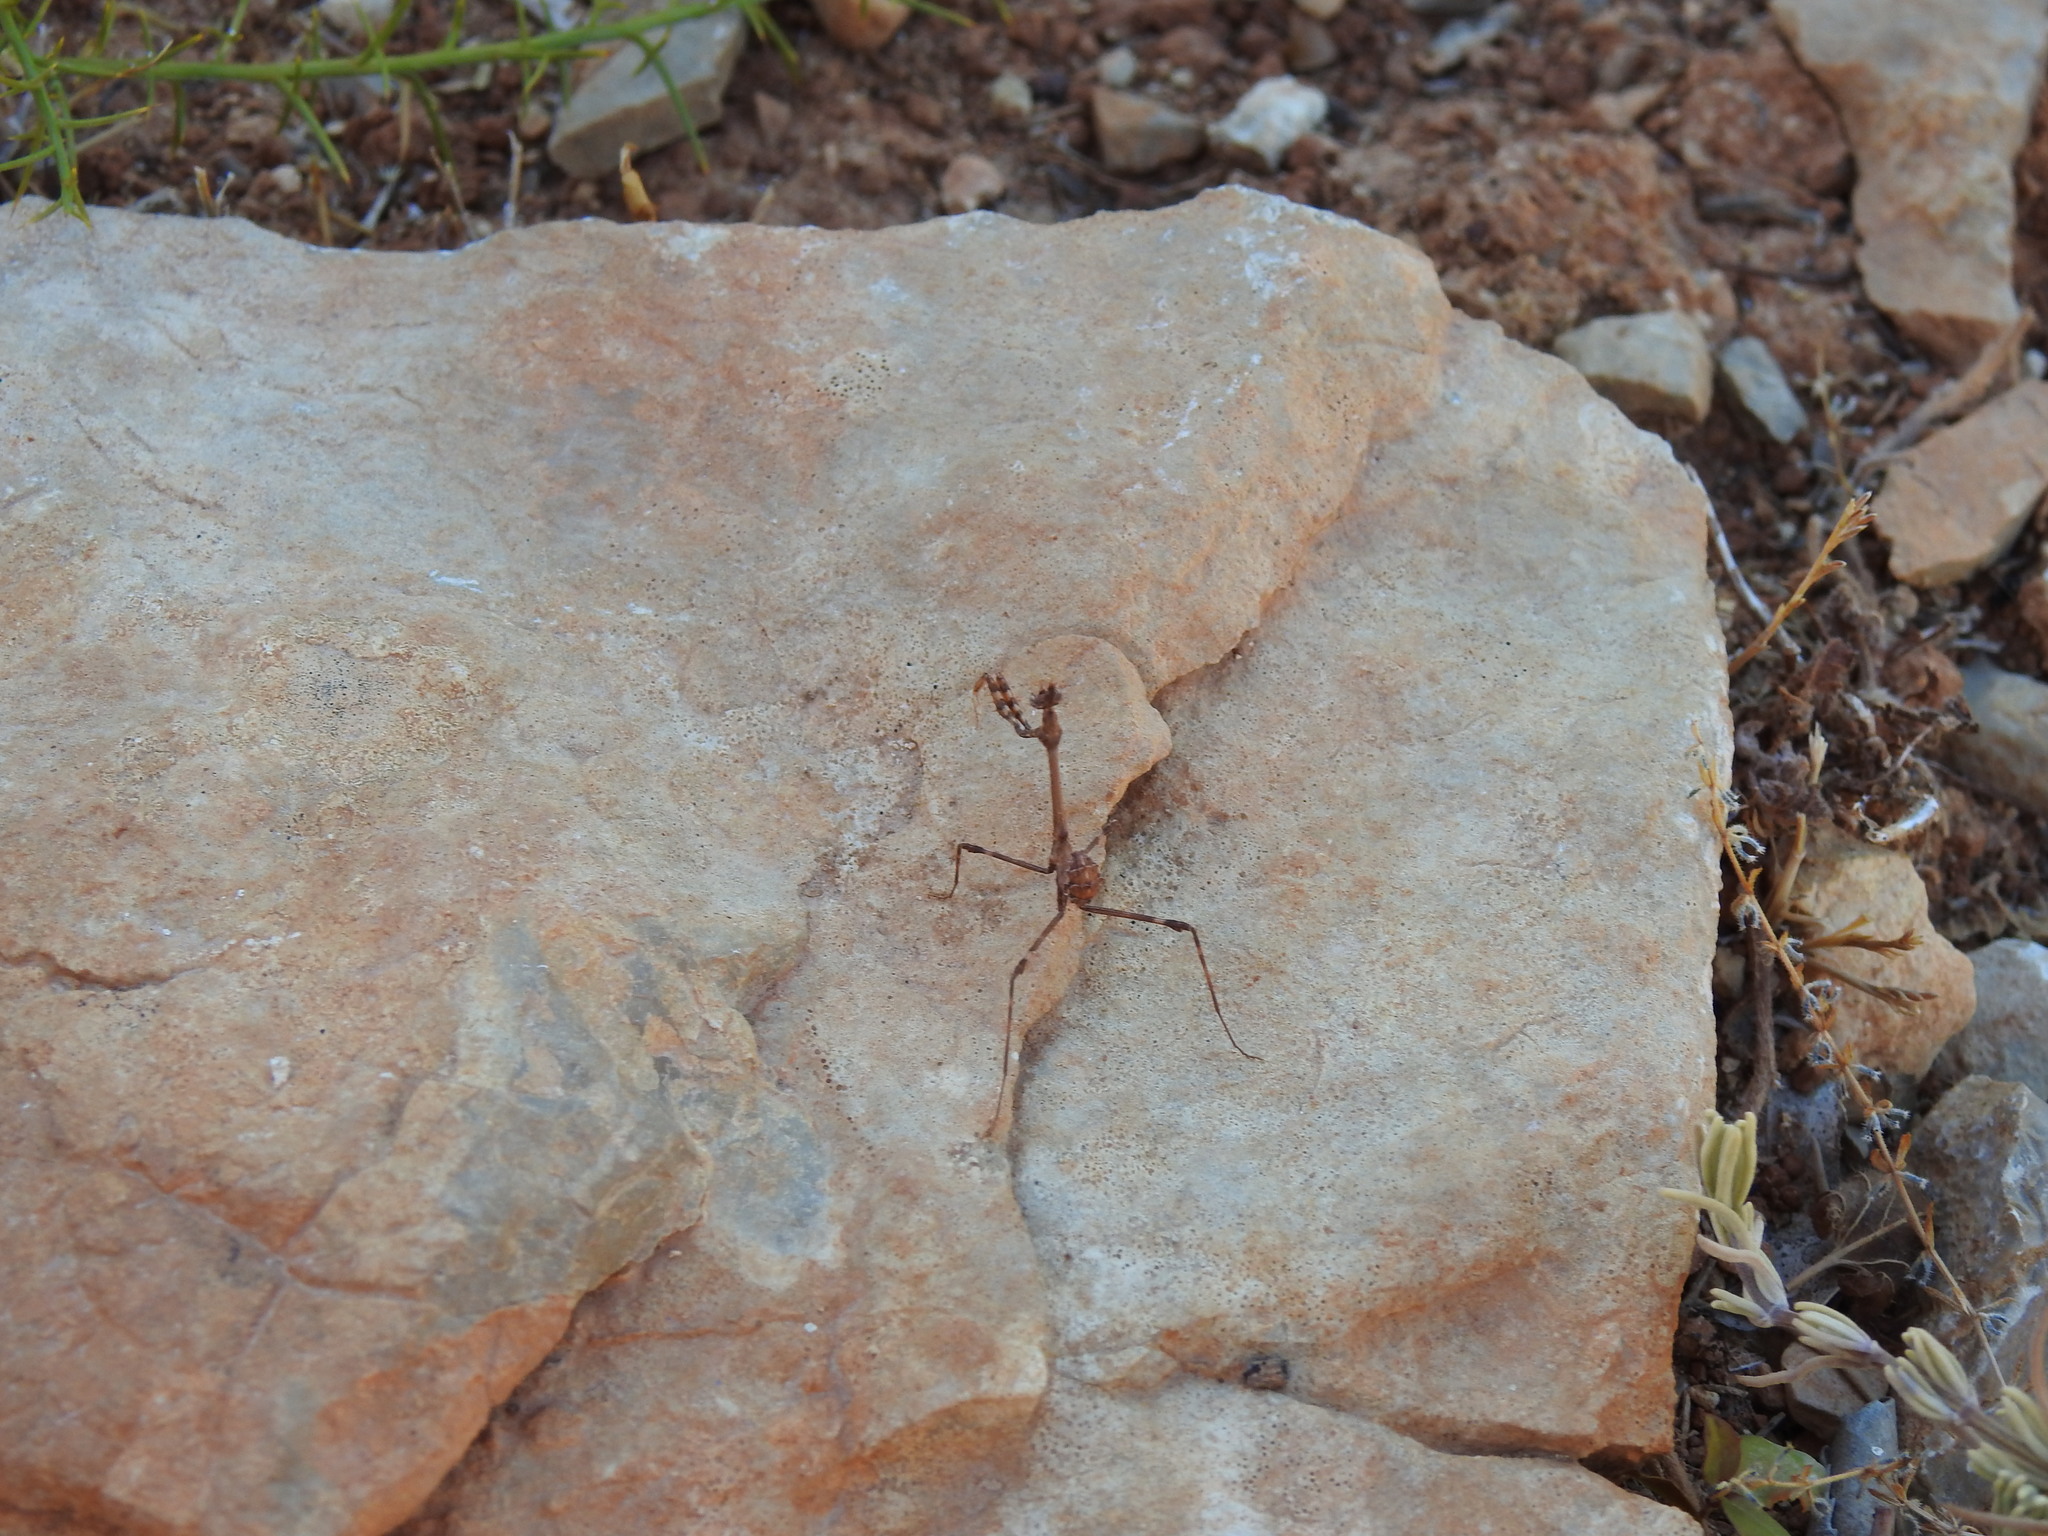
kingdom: Animalia
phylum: Arthropoda
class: Insecta
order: Mantodea
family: Empusidae
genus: Empusa
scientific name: Empusa pennata
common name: Conehead mantis
